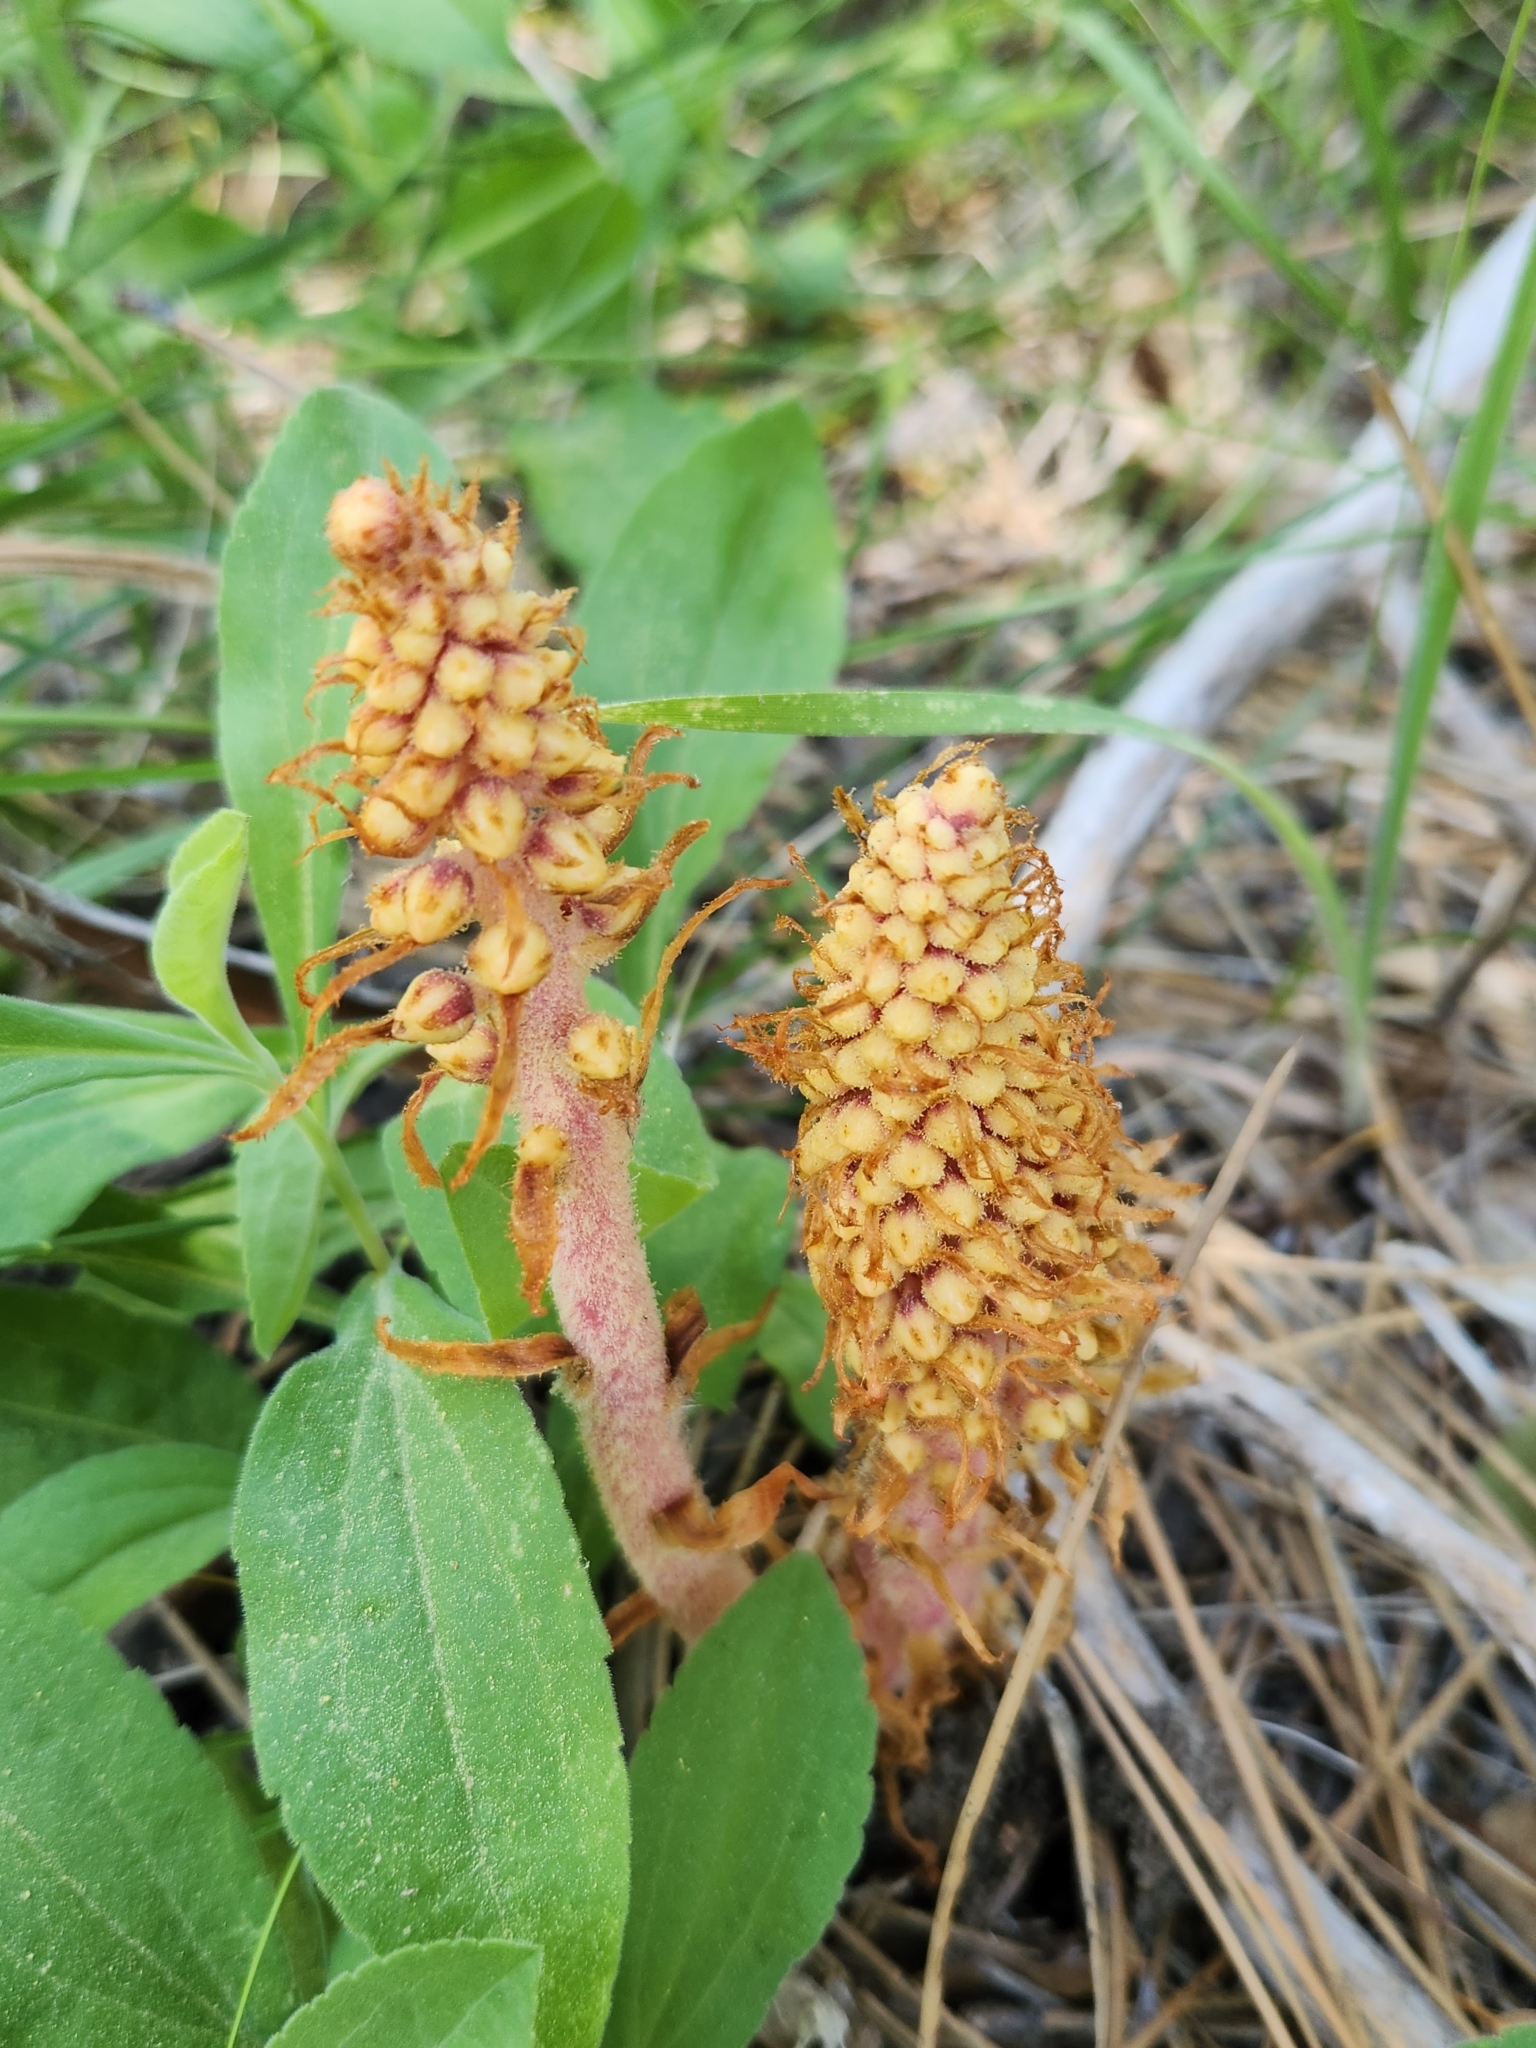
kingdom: Plantae
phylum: Tracheophyta
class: Magnoliopsida
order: Ericales
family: Ericaceae
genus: Pterospora
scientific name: Pterospora andromedea
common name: Giant bird's-nest
